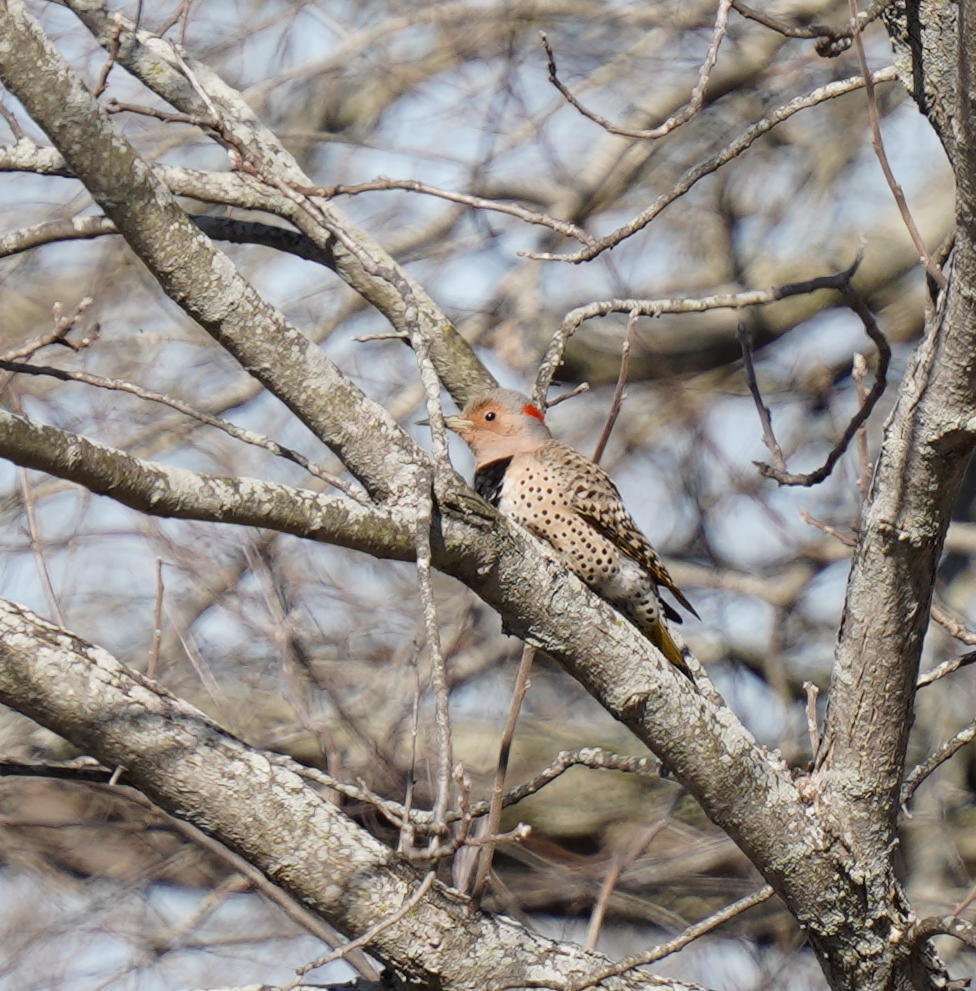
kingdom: Animalia
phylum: Chordata
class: Aves
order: Piciformes
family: Picidae
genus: Colaptes
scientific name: Colaptes auratus
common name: Northern flicker
